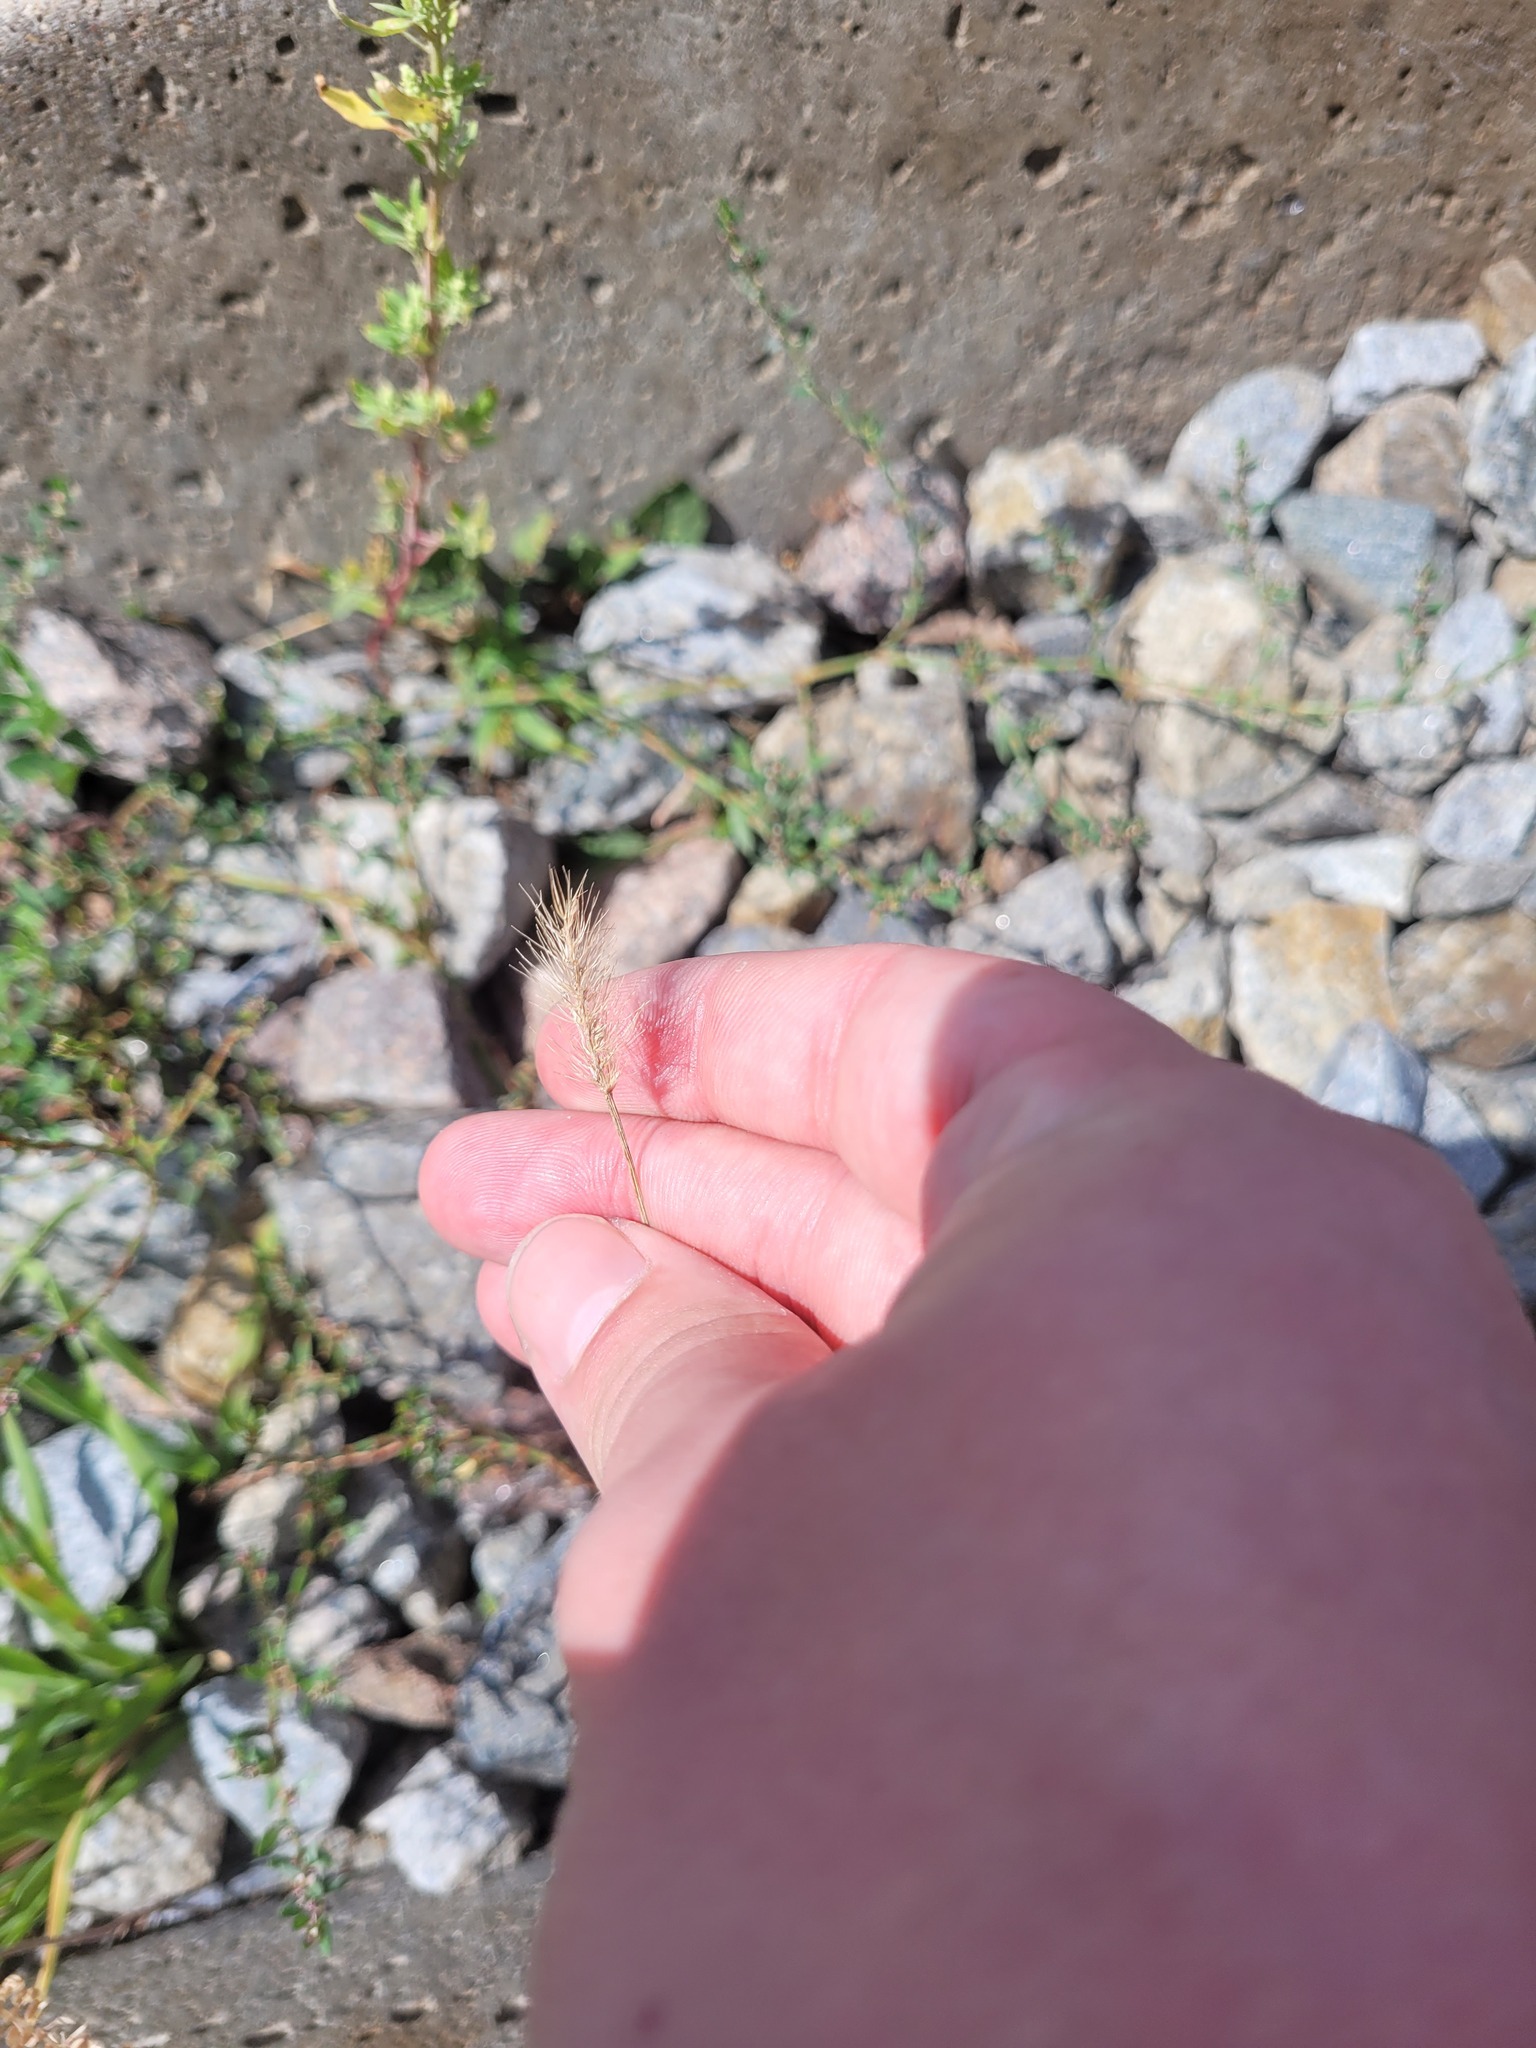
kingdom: Plantae
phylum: Tracheophyta
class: Liliopsida
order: Poales
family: Poaceae
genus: Setaria
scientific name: Setaria viridis
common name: Green bristlegrass
